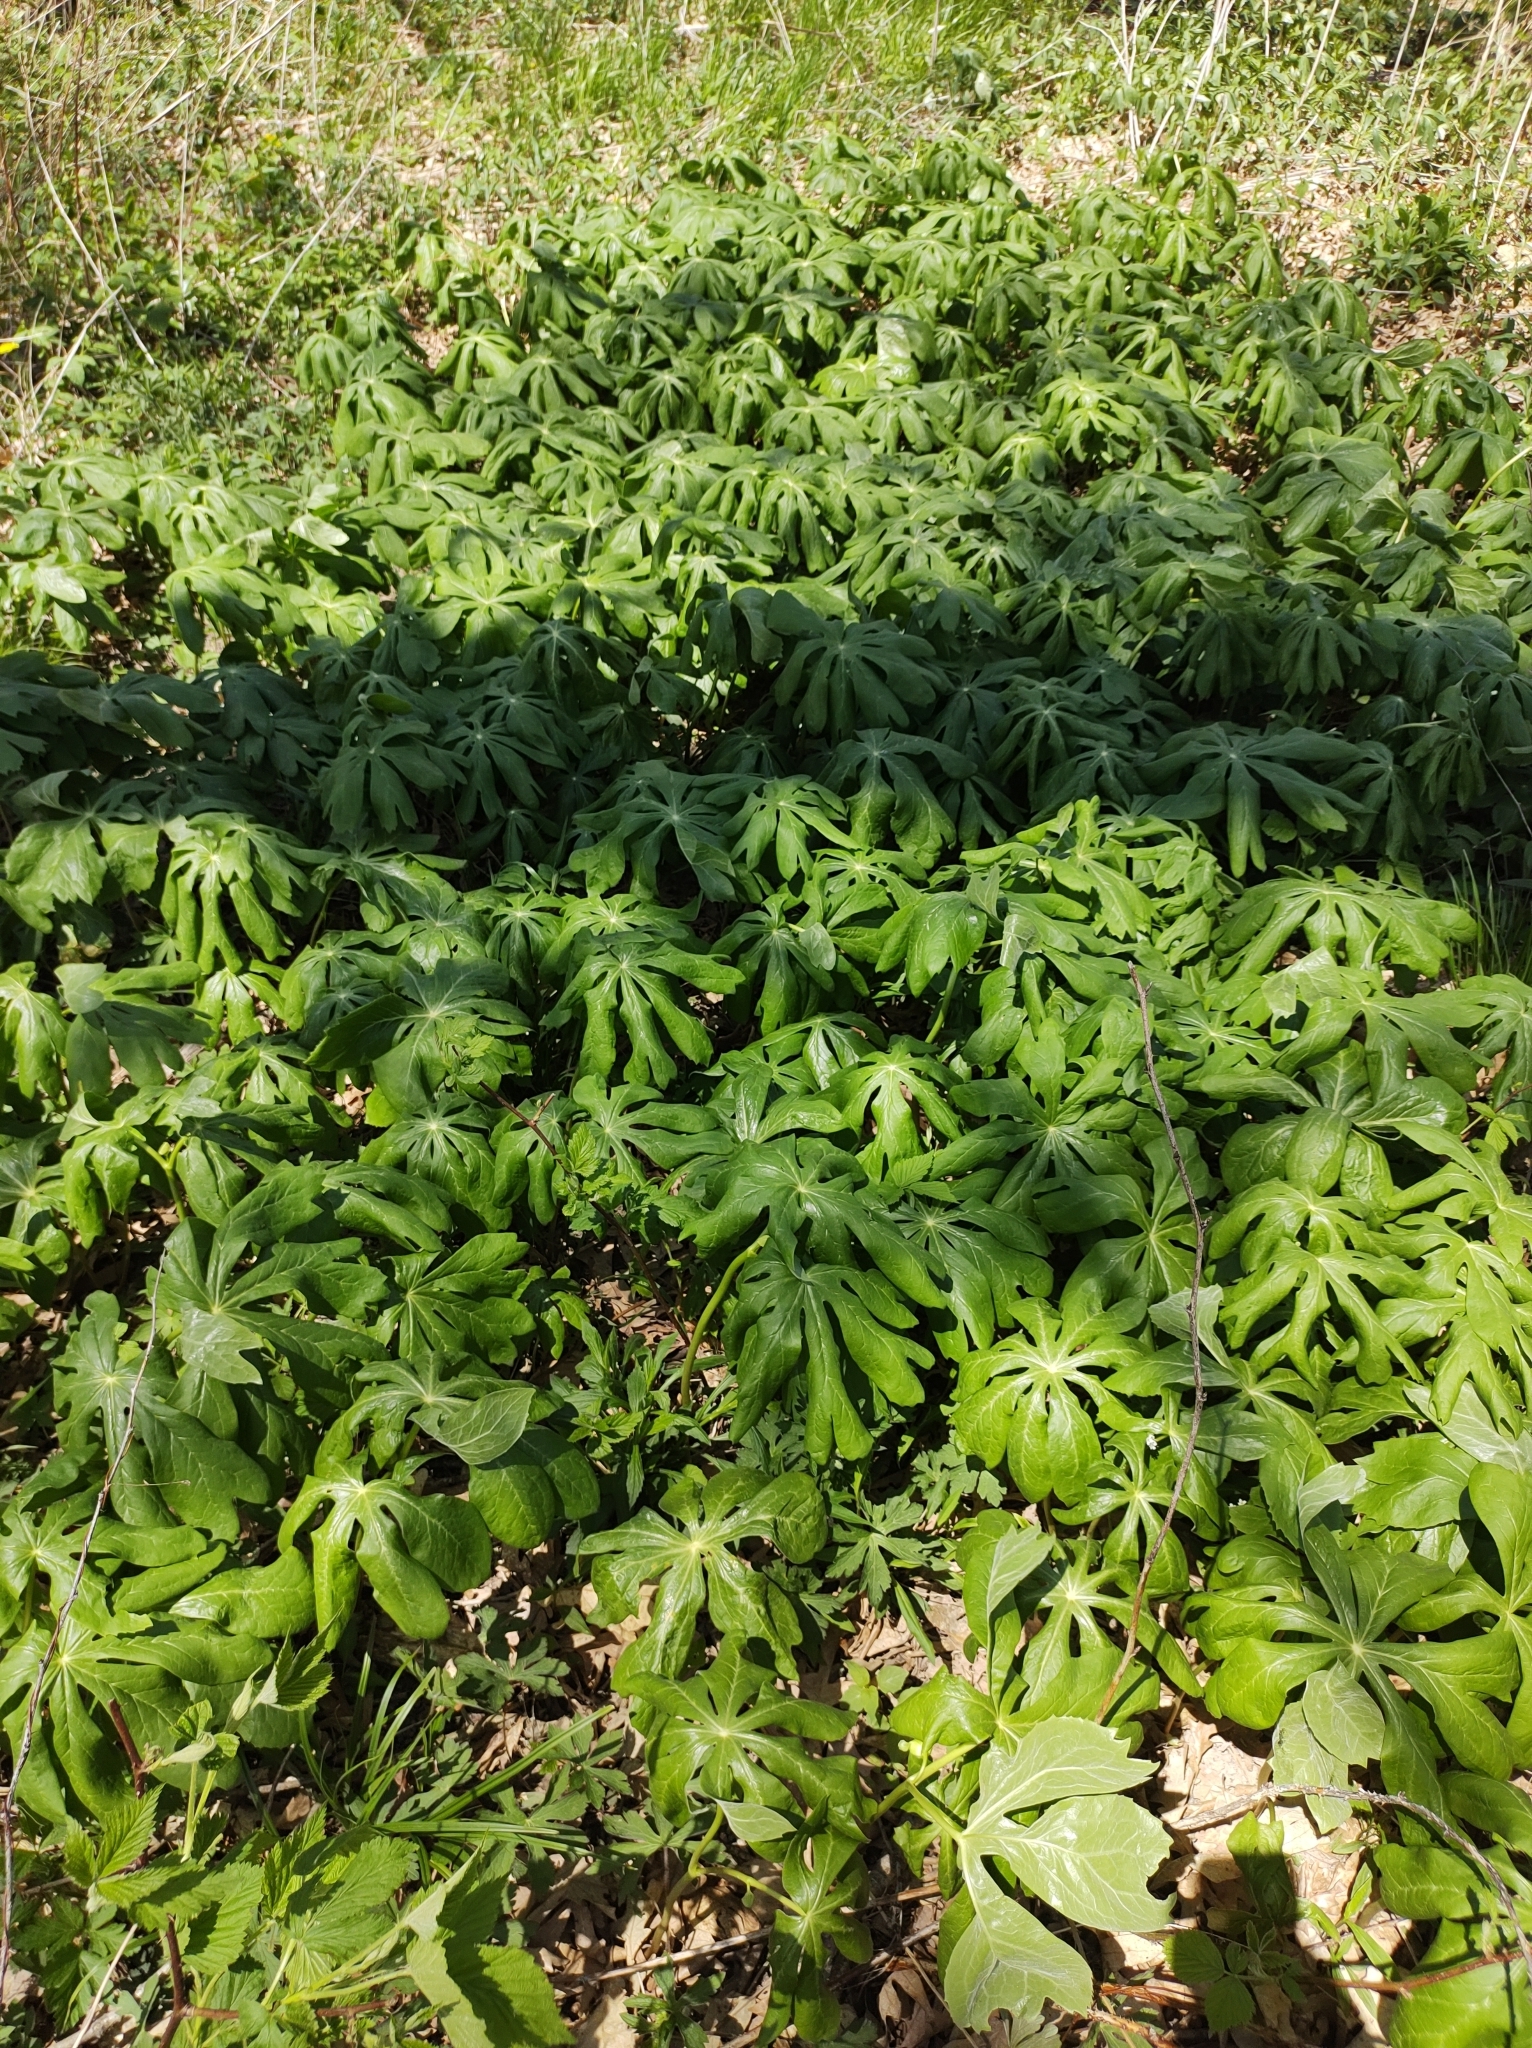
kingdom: Plantae
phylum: Tracheophyta
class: Magnoliopsida
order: Ranunculales
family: Berberidaceae
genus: Podophyllum
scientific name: Podophyllum peltatum
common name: Wild mandrake
